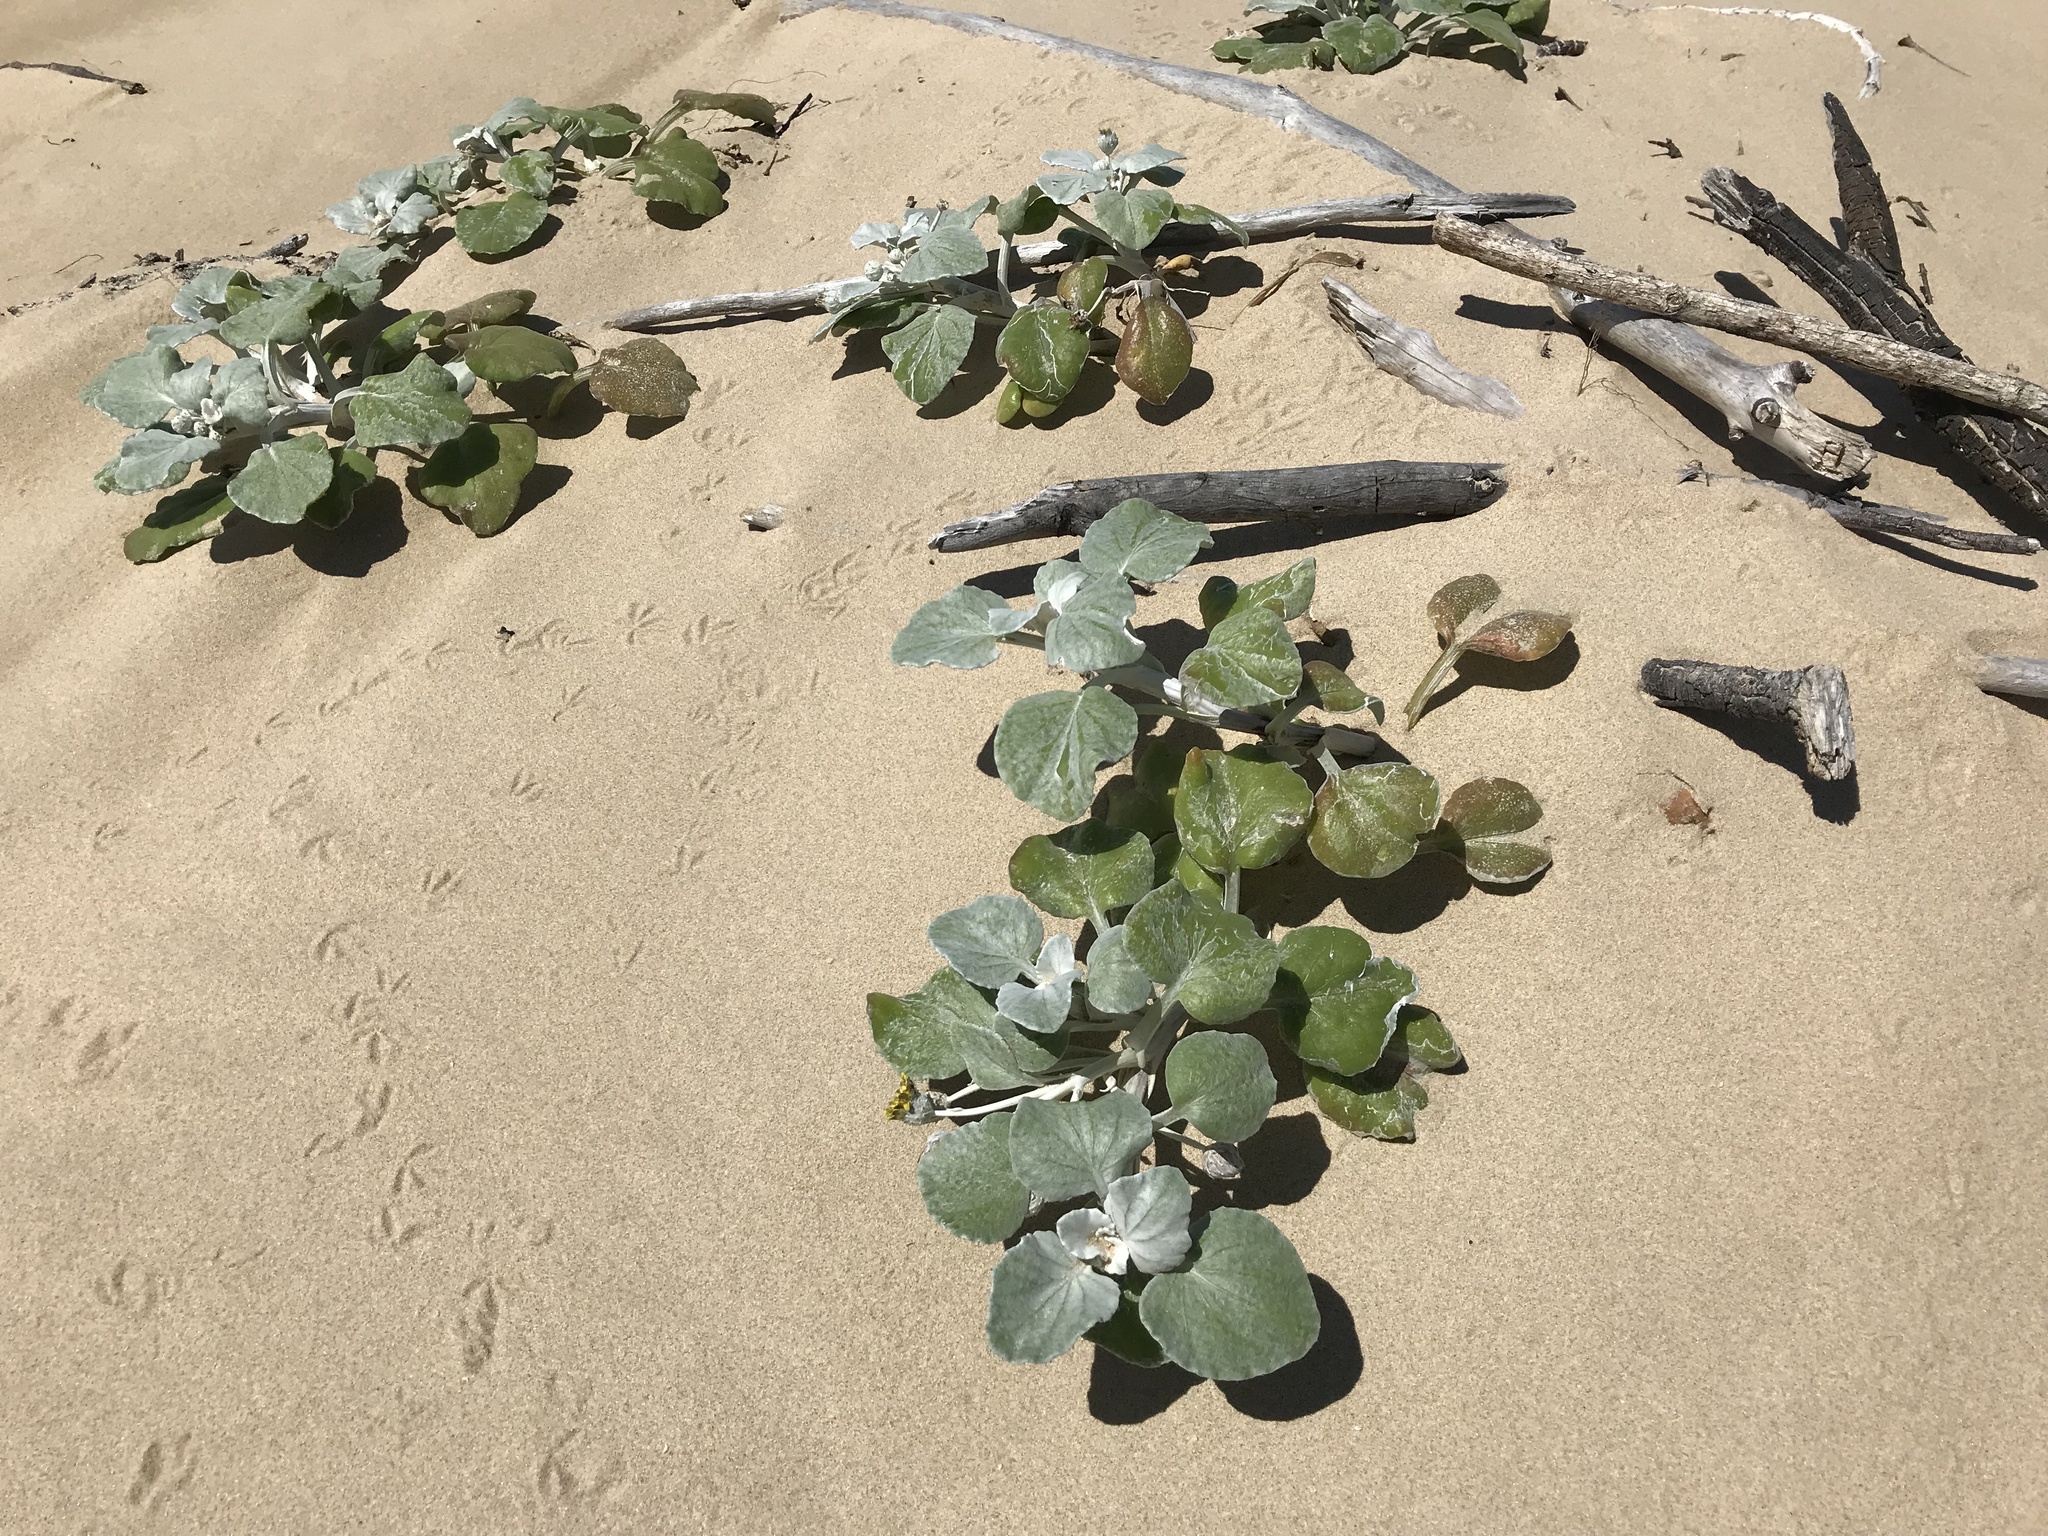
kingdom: Plantae
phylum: Tracheophyta
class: Magnoliopsida
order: Asterales
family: Asteraceae
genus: Arctotheca
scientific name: Arctotheca populifolia
